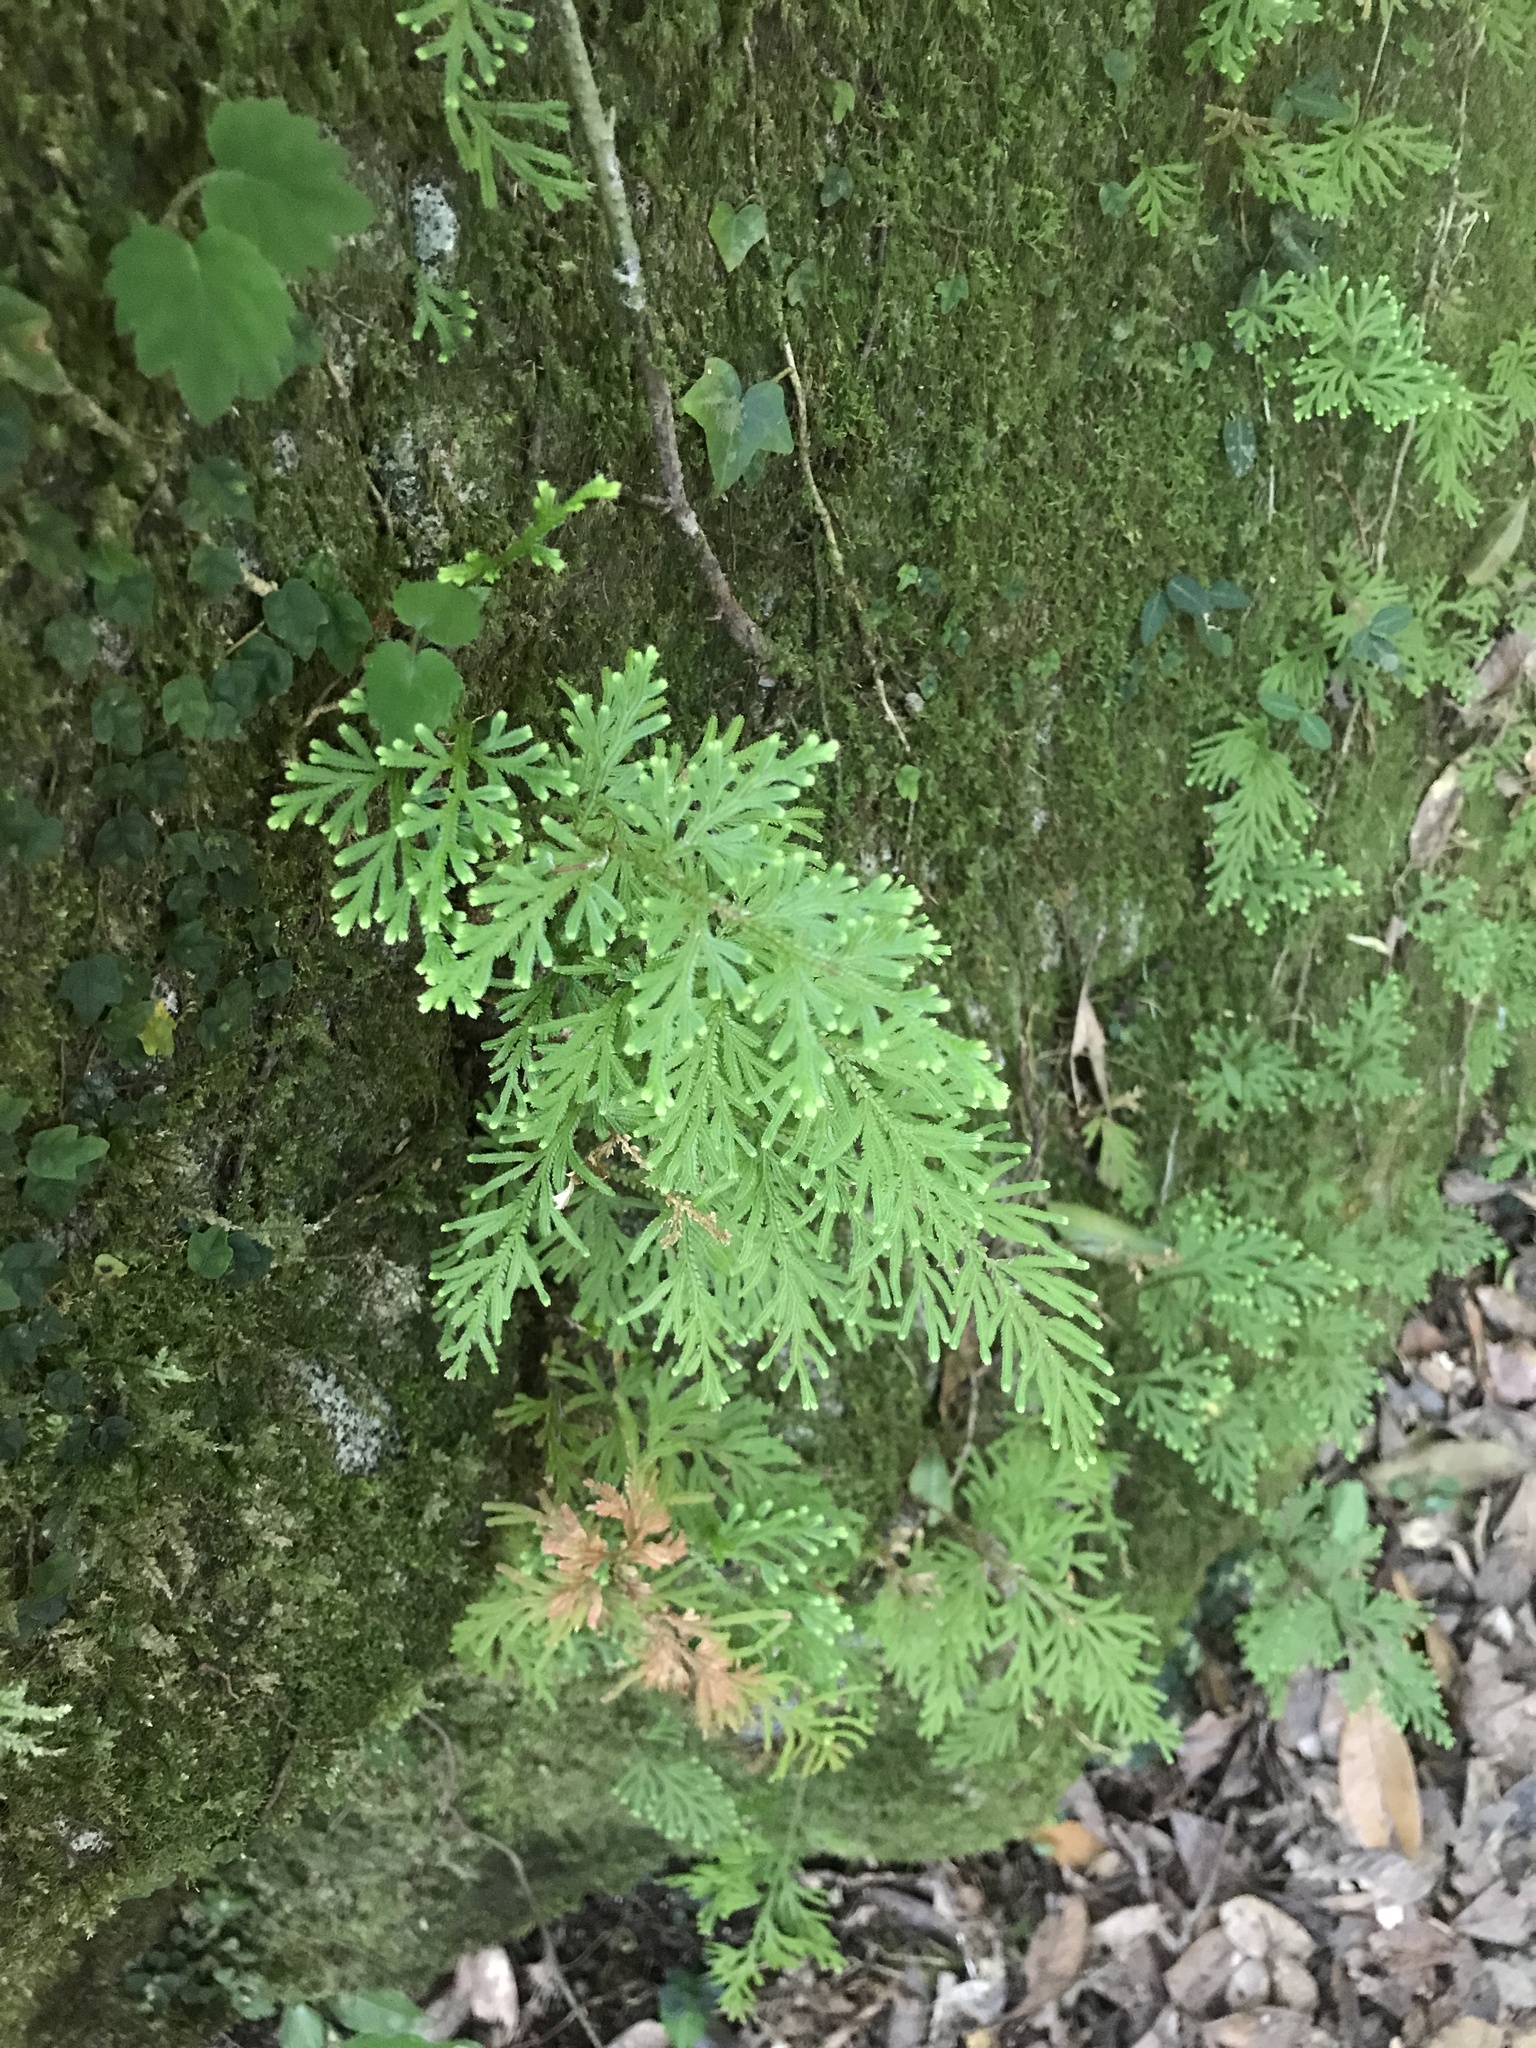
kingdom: Plantae
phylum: Tracheophyta
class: Lycopodiopsida
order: Selaginellales
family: Selaginellaceae
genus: Selaginella
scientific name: Selaginella involvens
